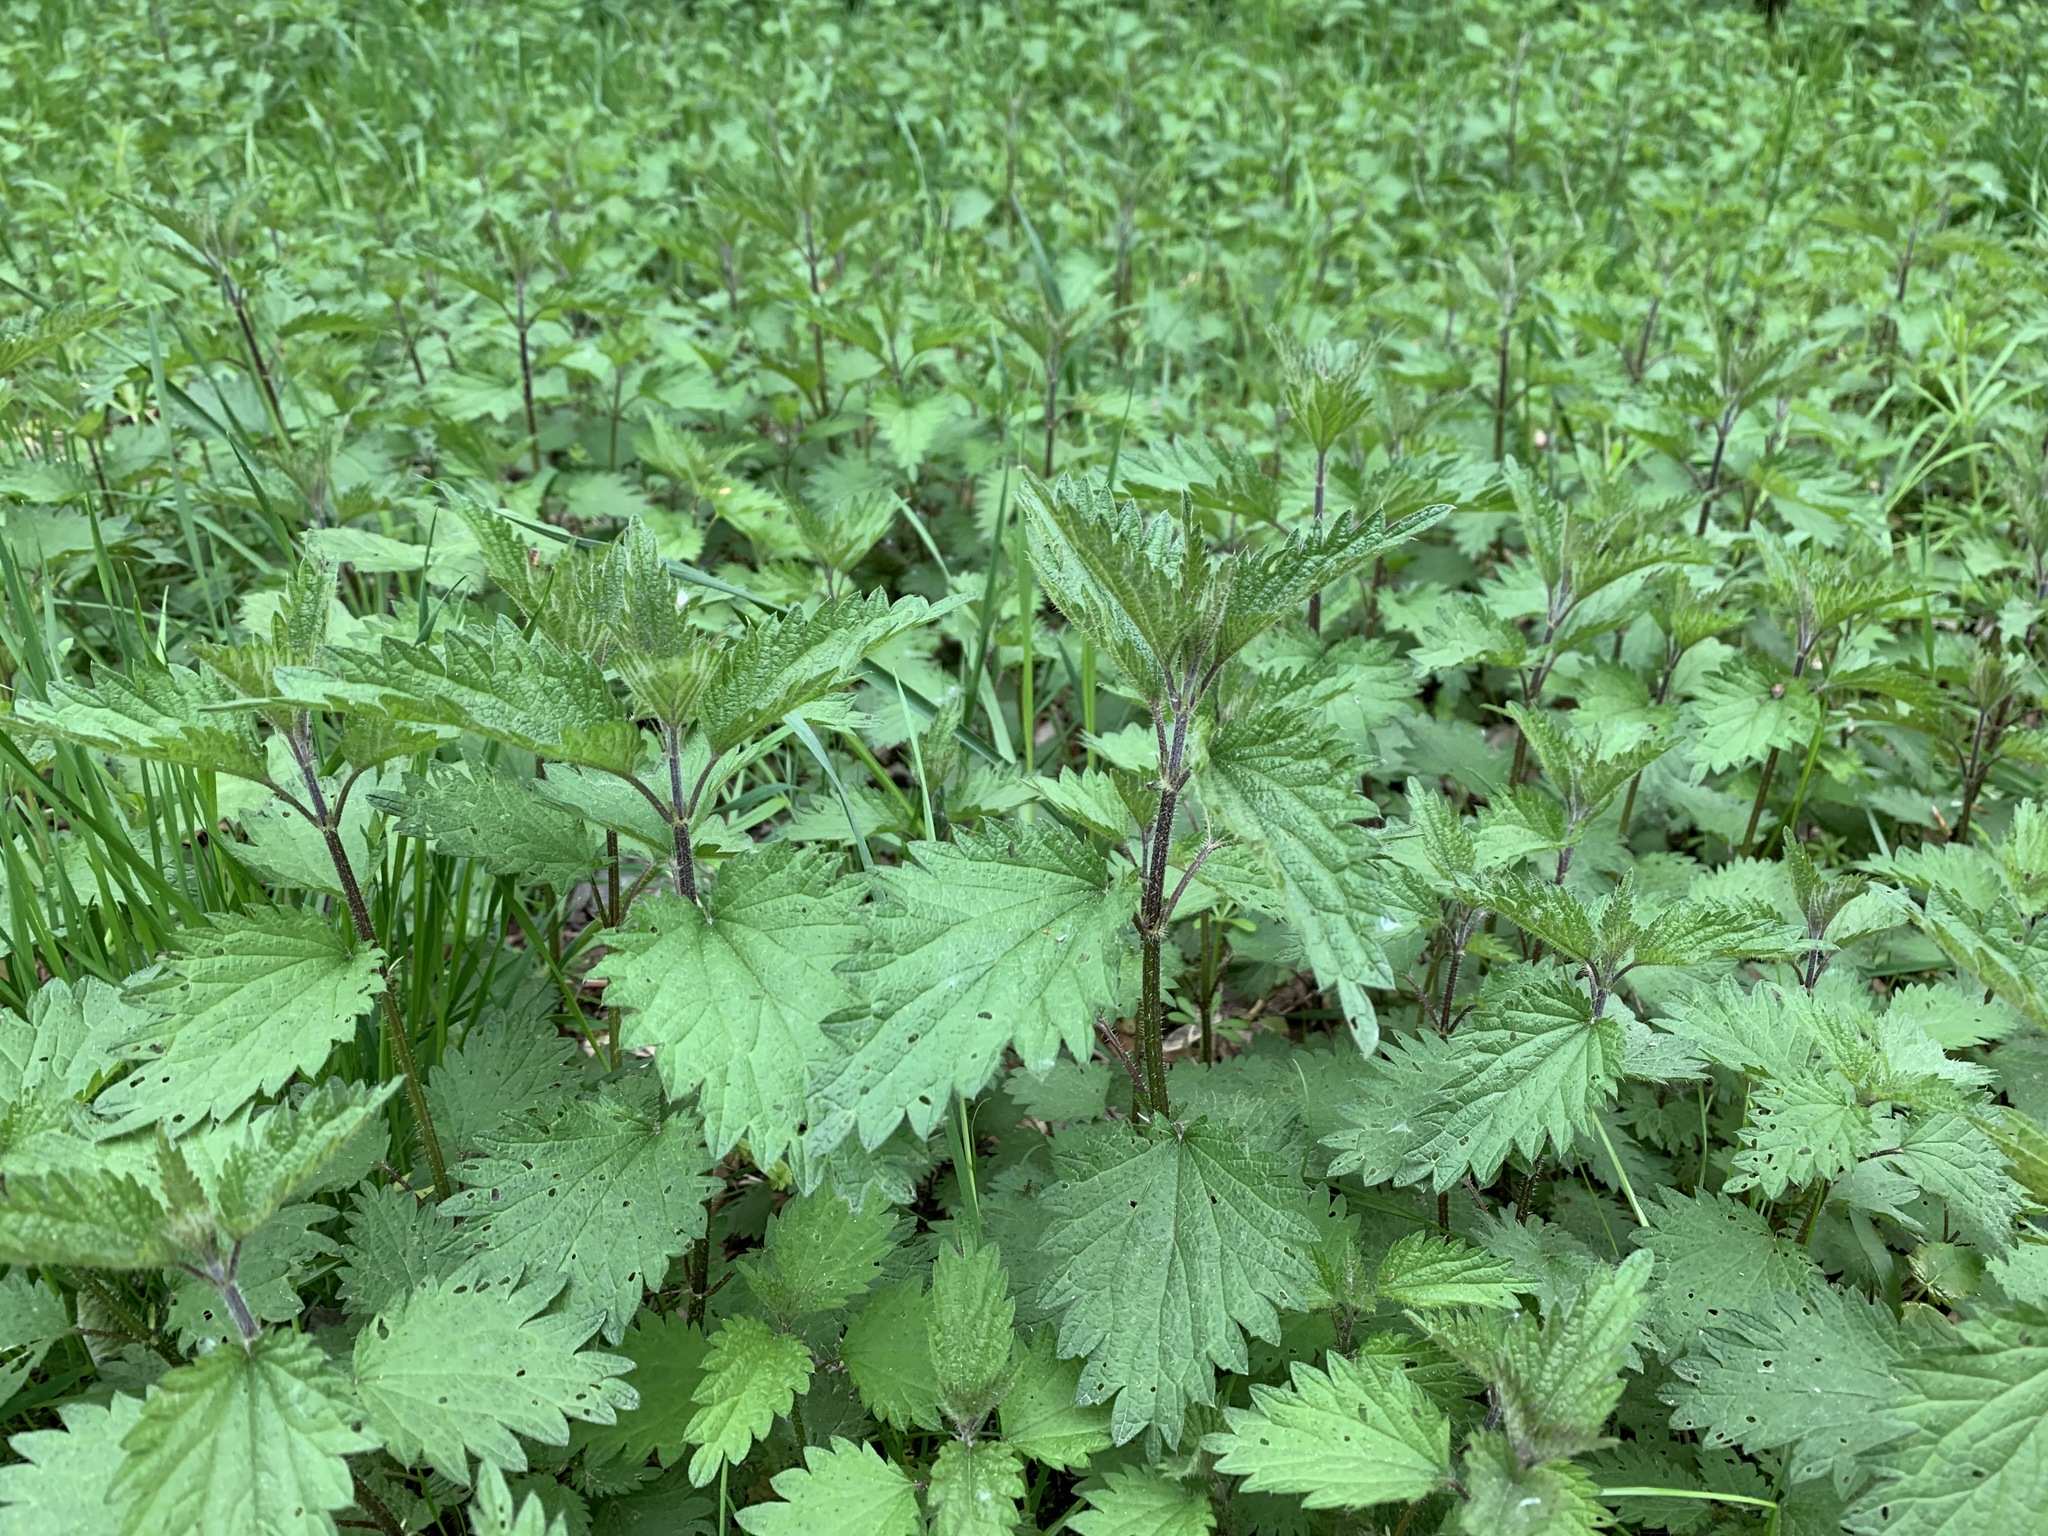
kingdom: Plantae
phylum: Tracheophyta
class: Magnoliopsida
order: Rosales
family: Urticaceae
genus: Urtica
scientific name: Urtica dioica
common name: Common nettle
